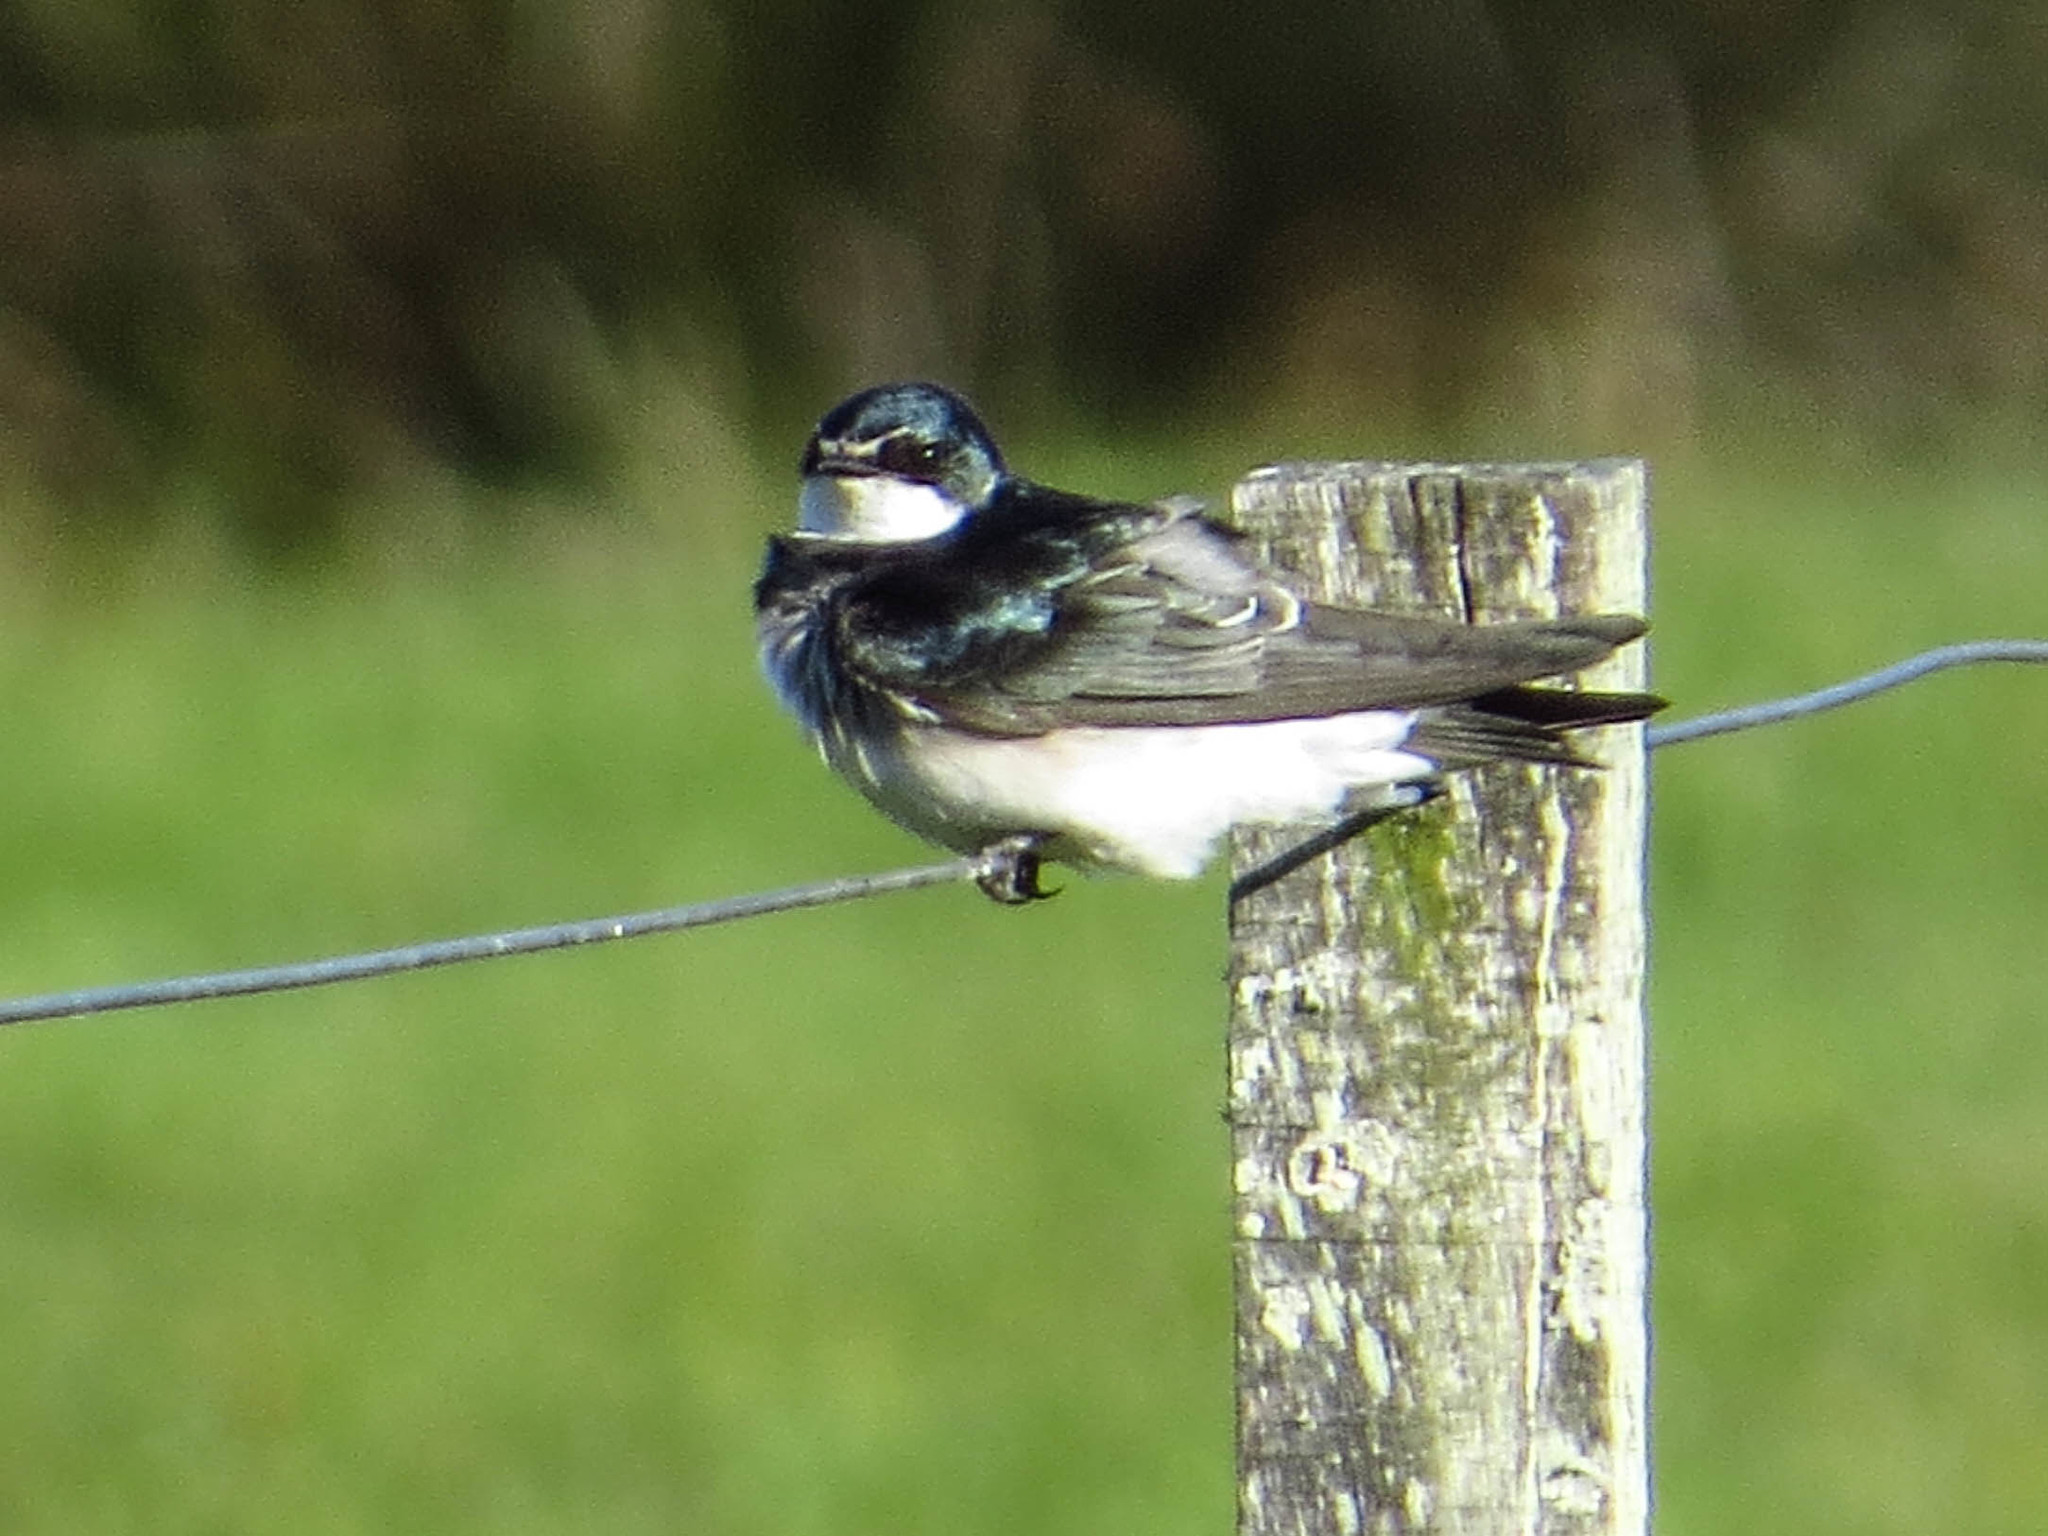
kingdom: Animalia
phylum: Chordata
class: Aves
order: Passeriformes
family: Hirundinidae
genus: Tachycineta
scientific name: Tachycineta leucorrhoa
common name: White-rumped swallow
